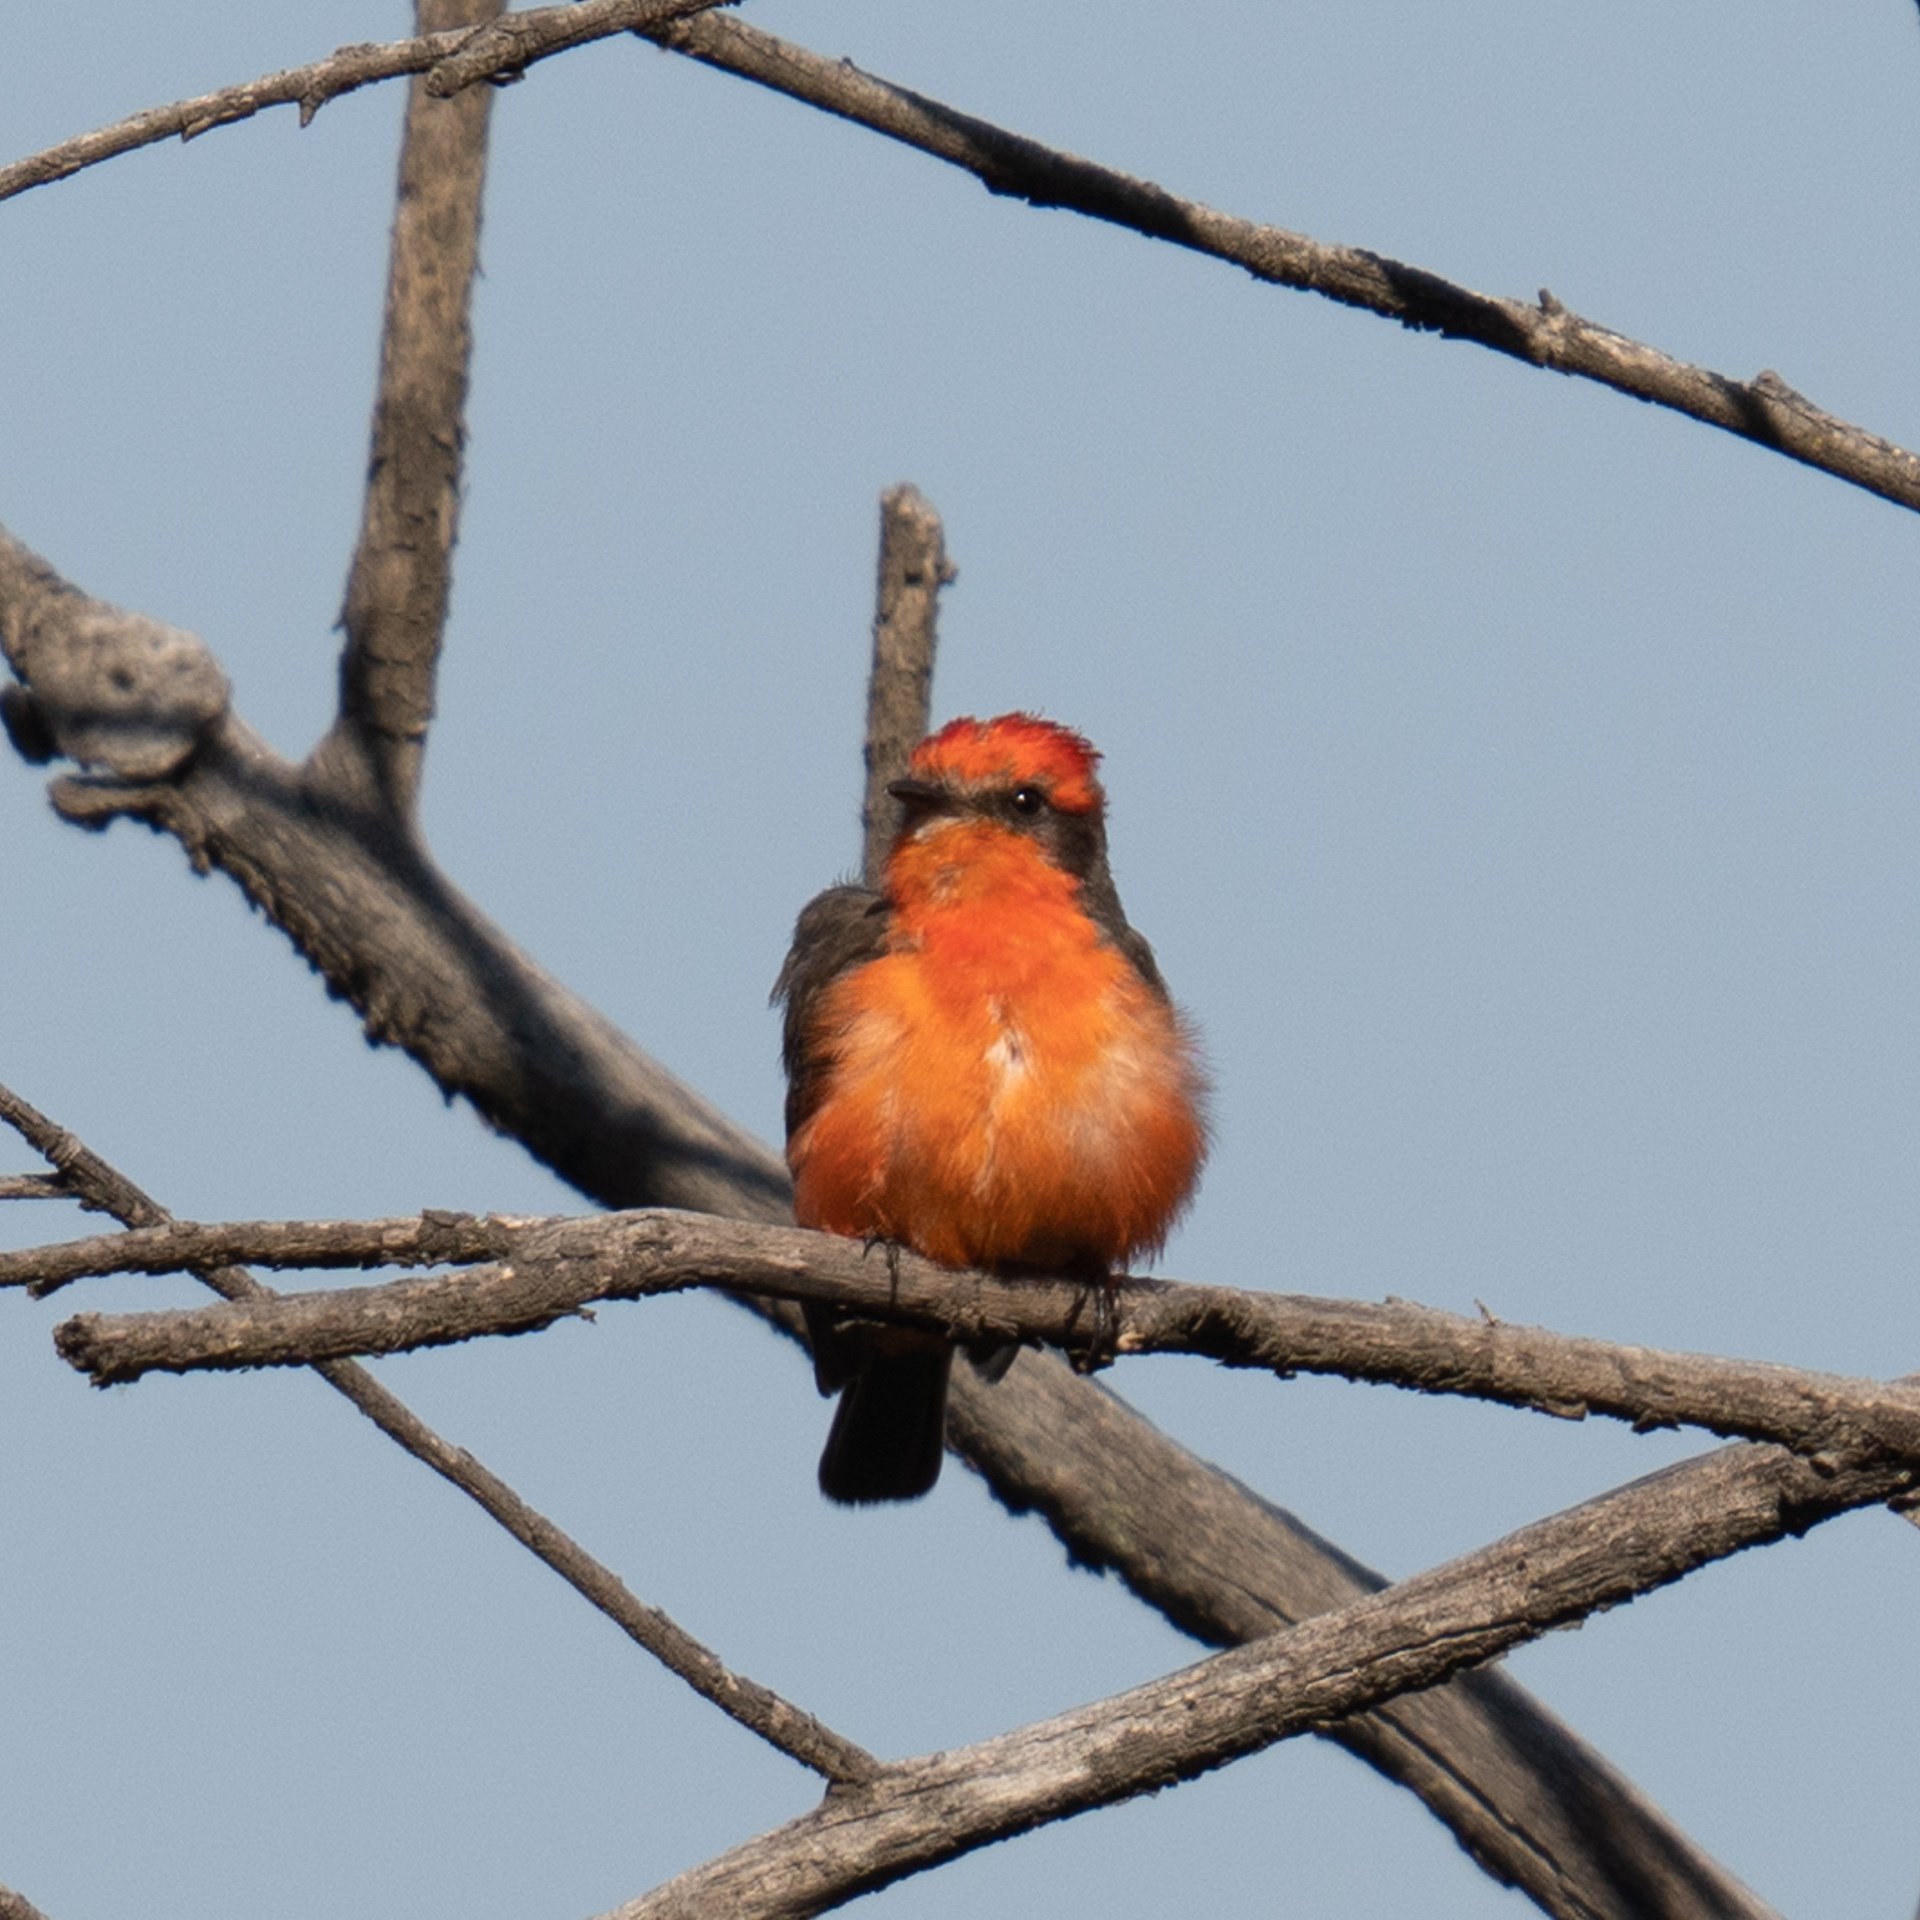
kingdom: Animalia
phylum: Chordata
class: Aves
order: Passeriformes
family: Tyrannidae
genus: Pyrocephalus
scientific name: Pyrocephalus rubinus
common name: Vermilion flycatcher
